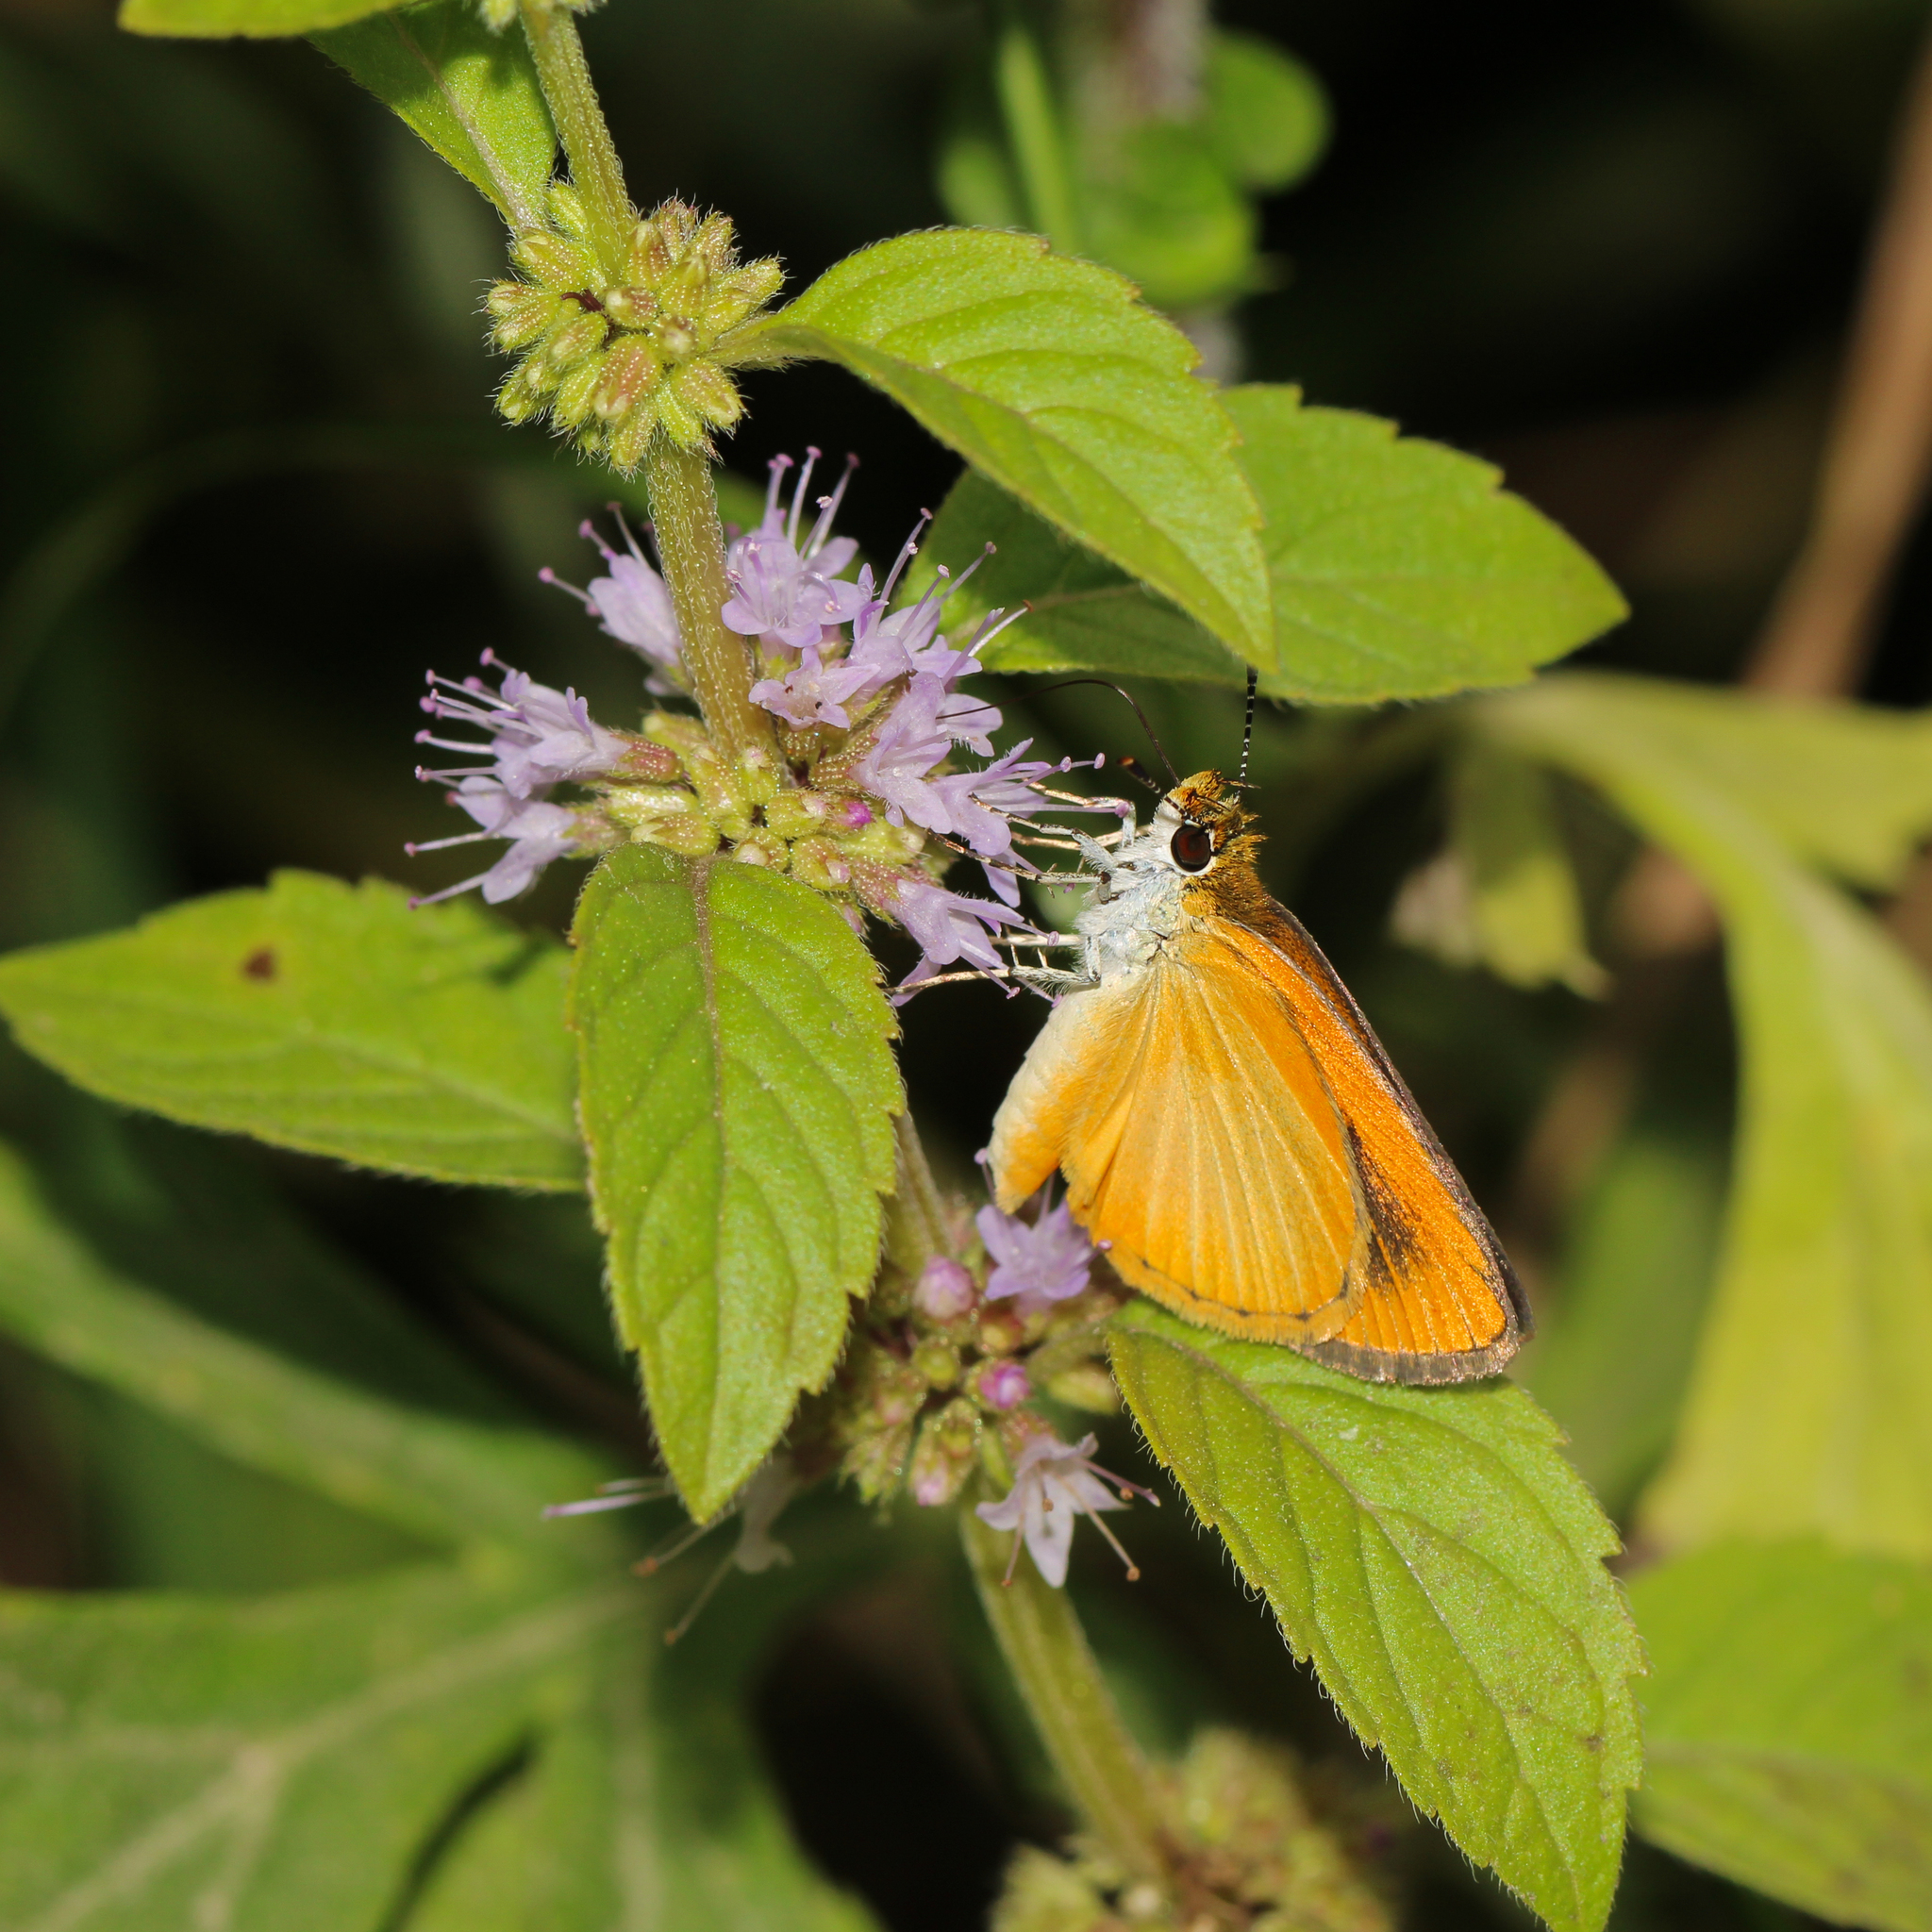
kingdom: Animalia
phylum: Arthropoda
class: Insecta
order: Lepidoptera
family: Hesperiidae
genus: Ancyloxypha
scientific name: Ancyloxypha numitor
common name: Least skipper
